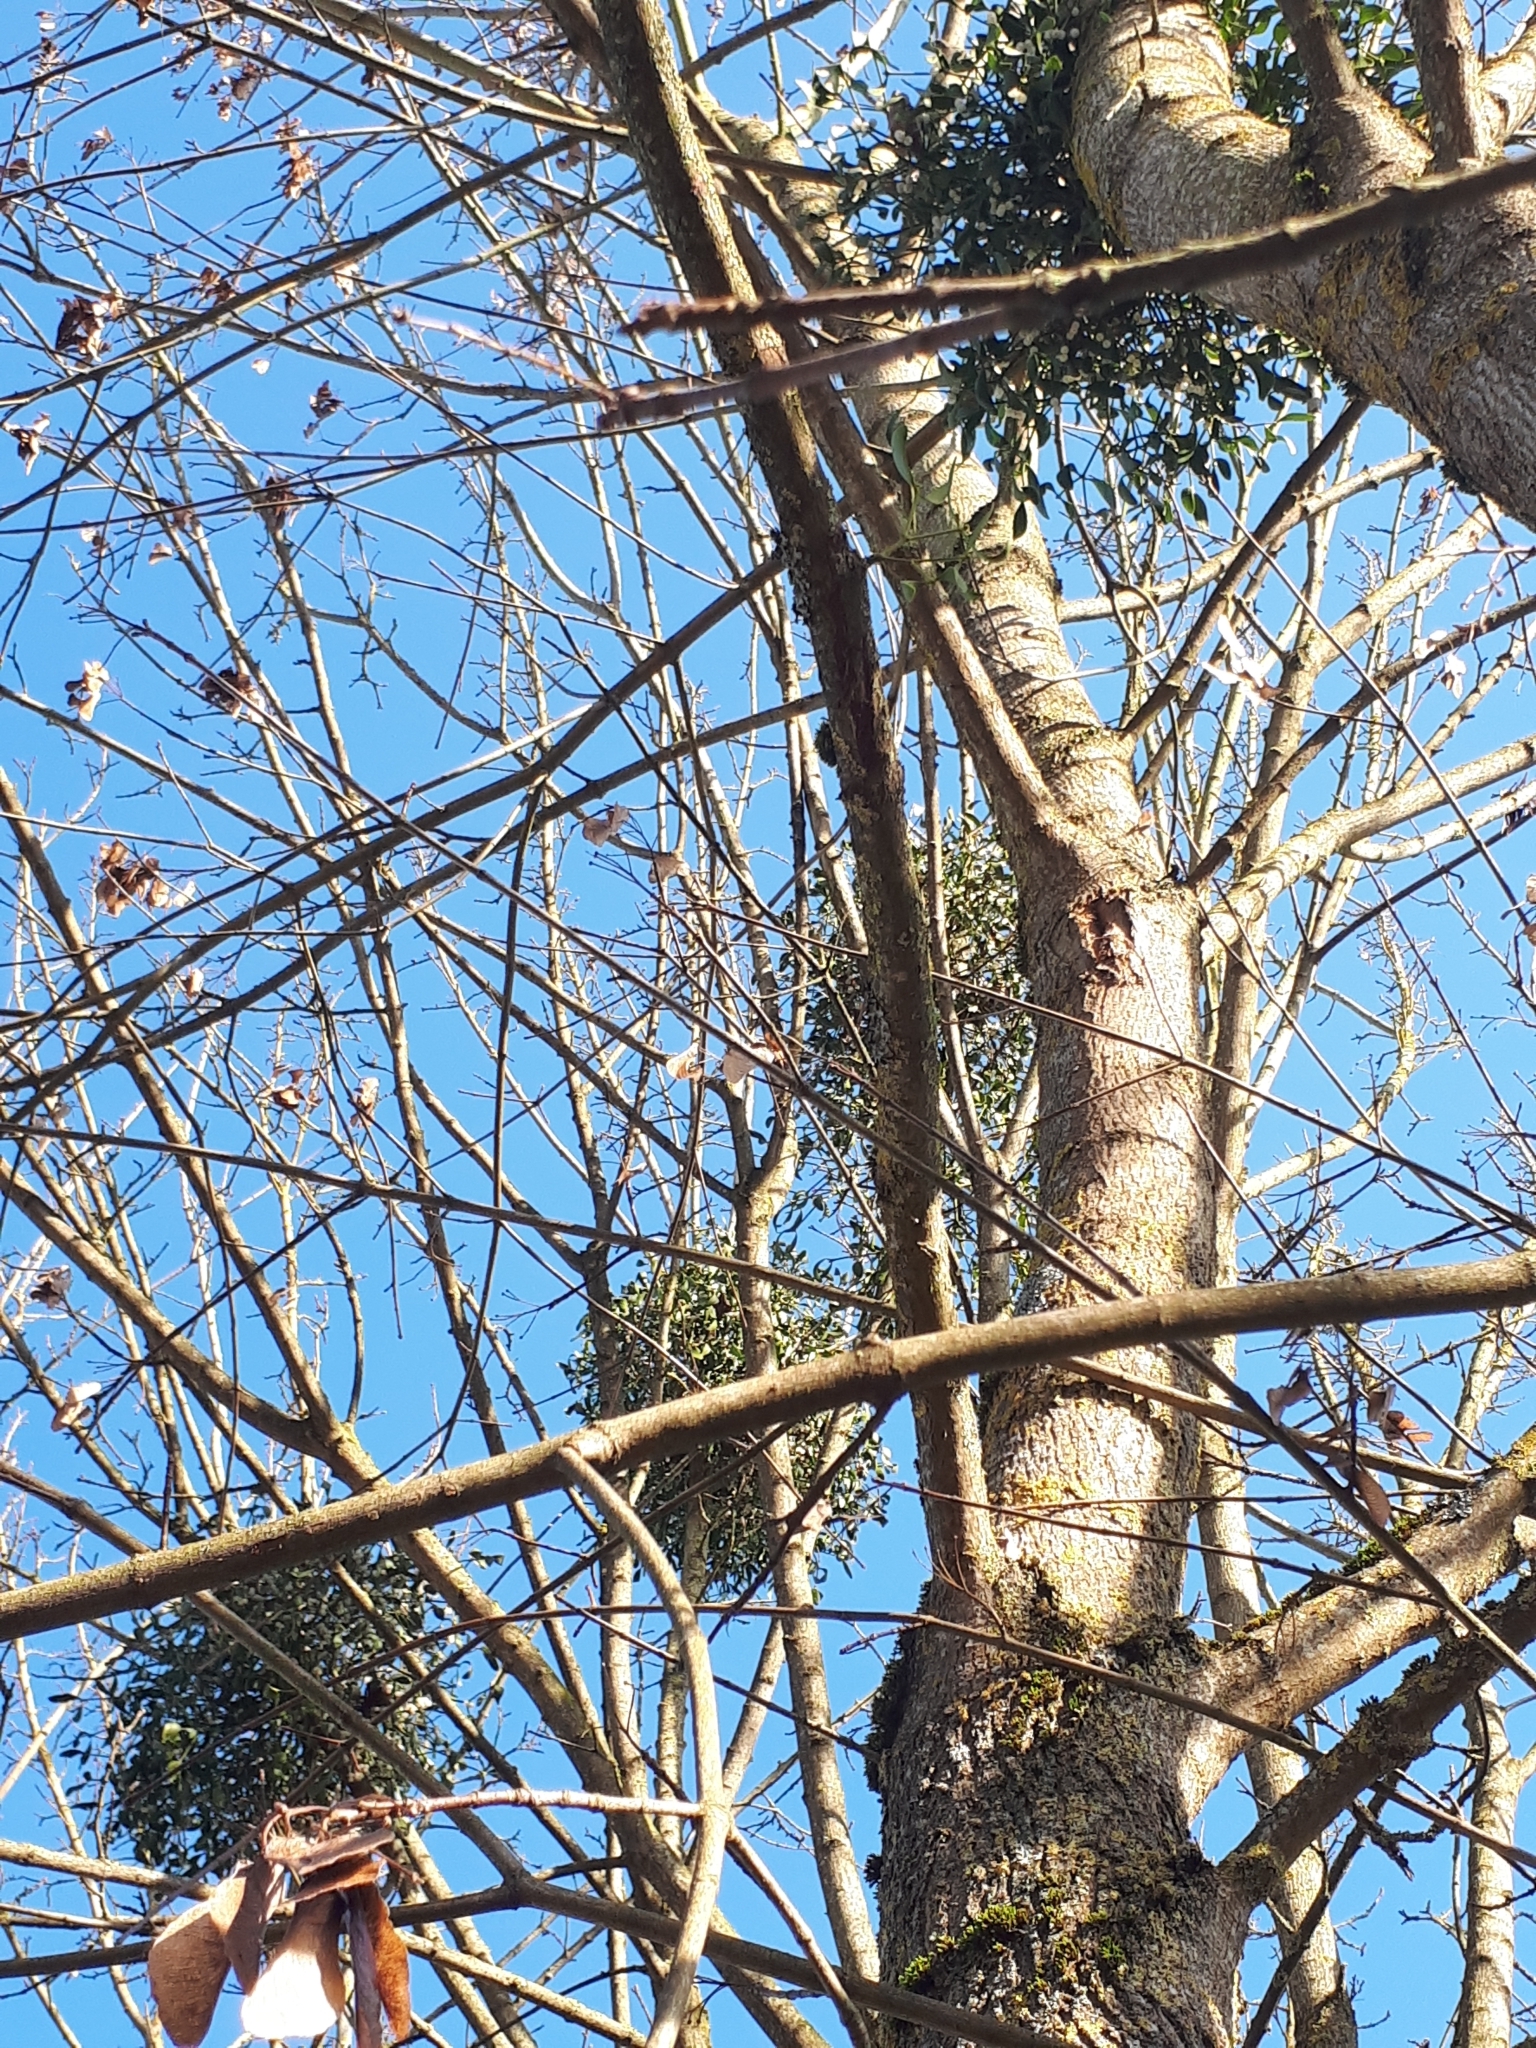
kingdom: Plantae
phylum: Tracheophyta
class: Magnoliopsida
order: Santalales
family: Viscaceae
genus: Viscum
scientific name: Viscum album
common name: Mistletoe
